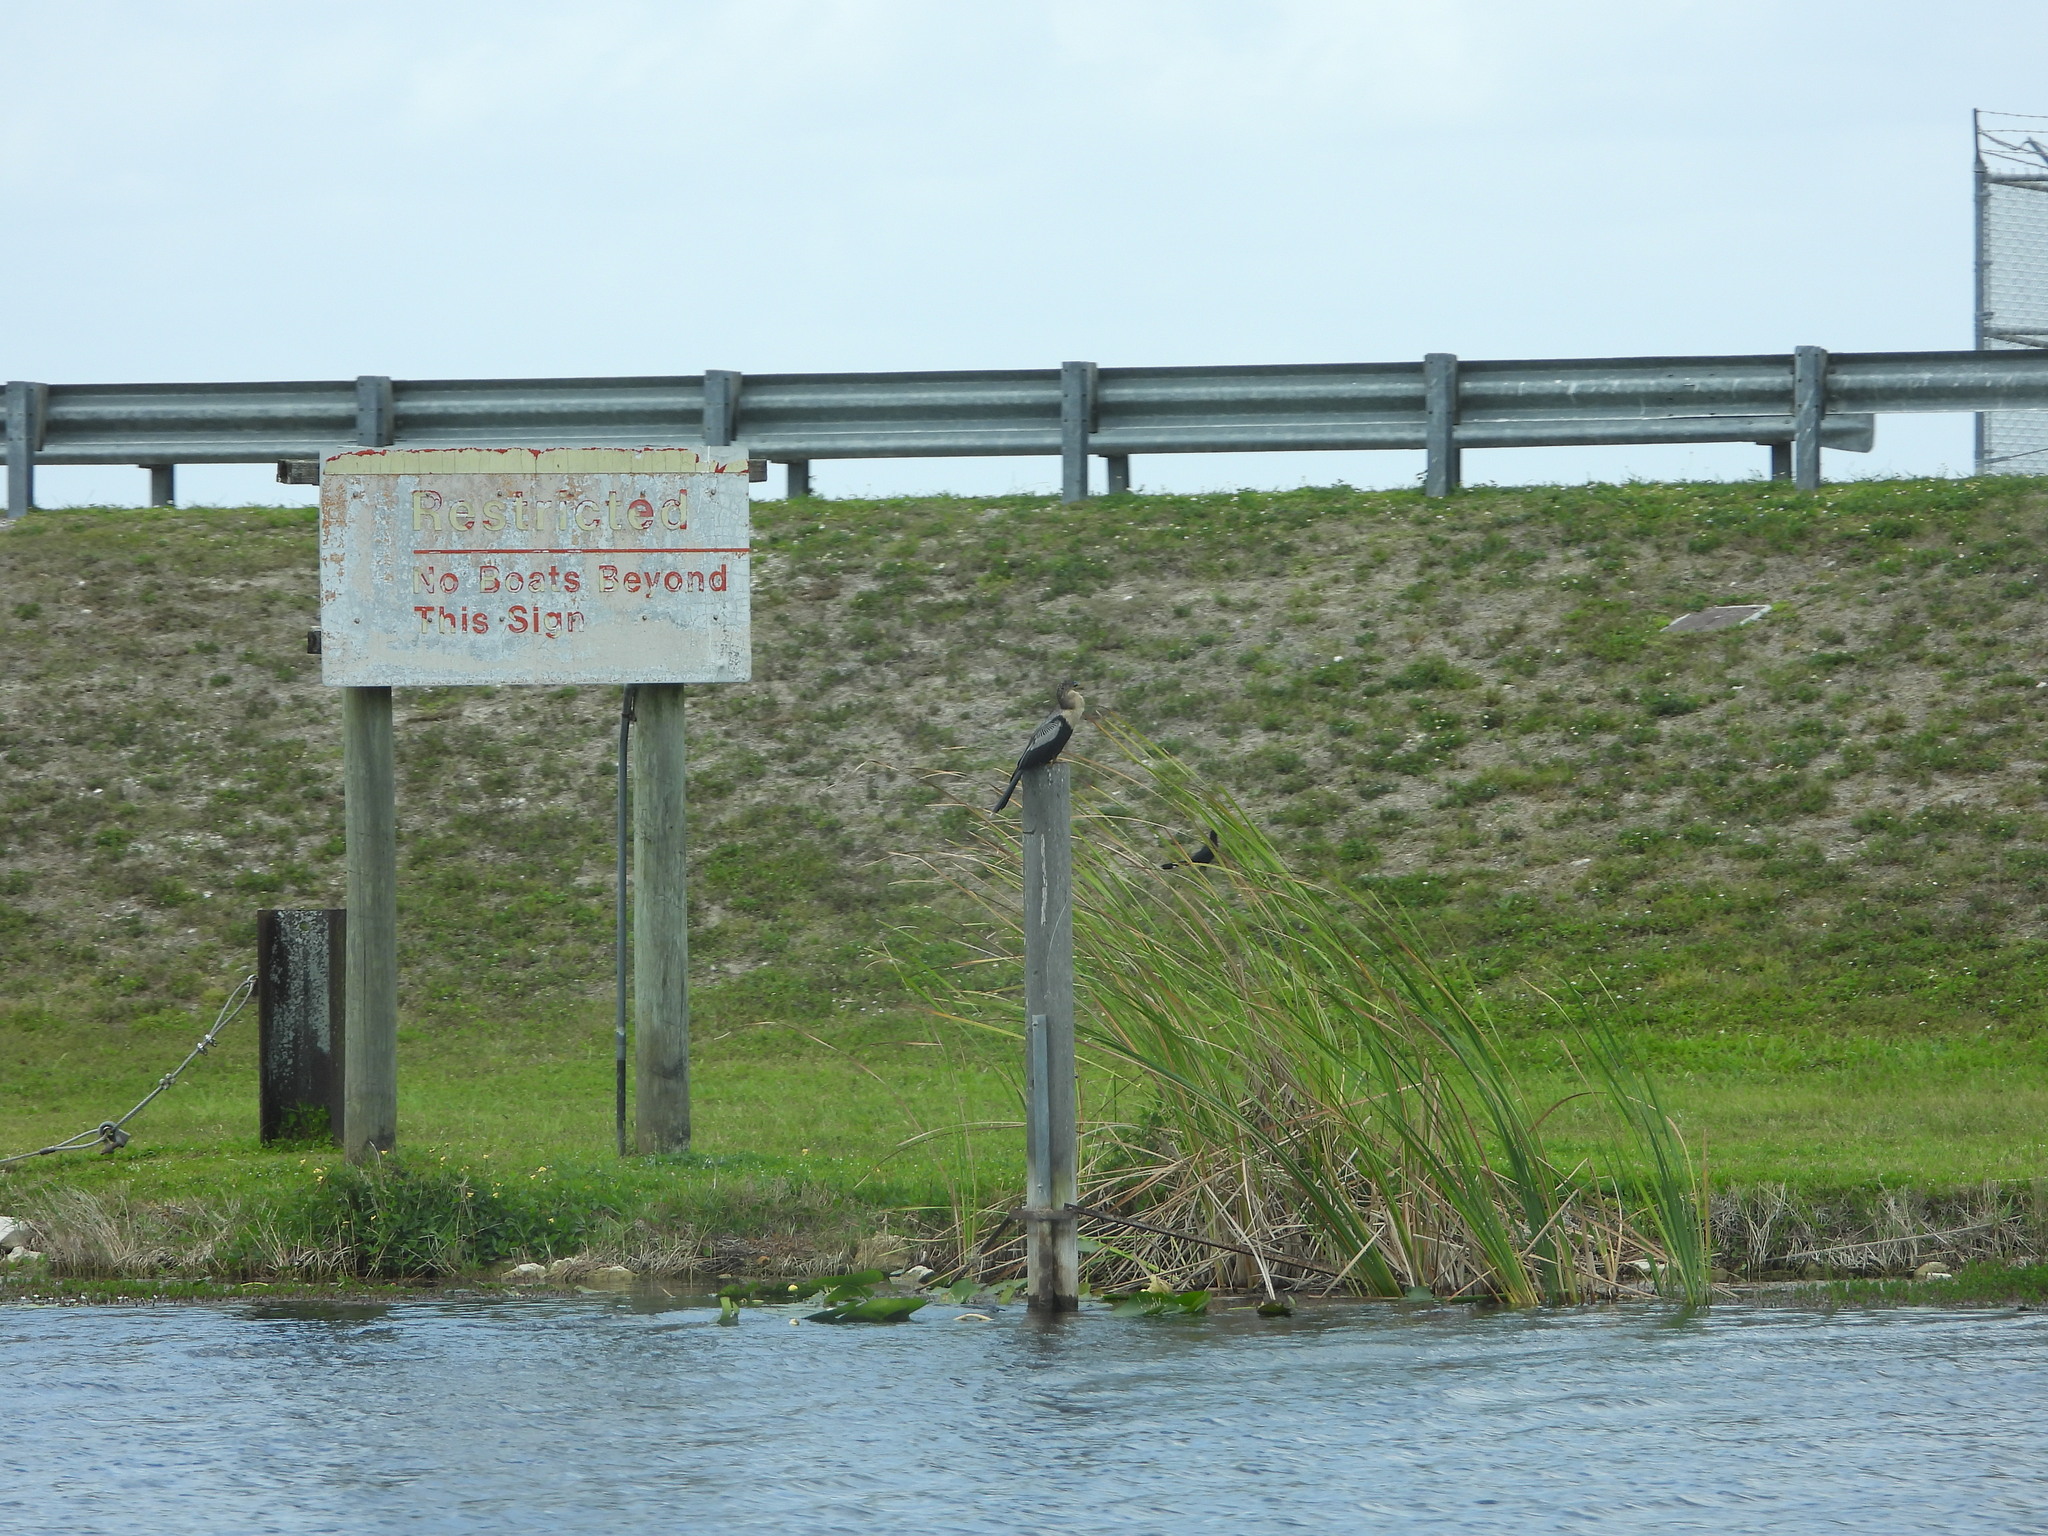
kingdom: Animalia
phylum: Chordata
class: Aves
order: Suliformes
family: Anhingidae
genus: Anhinga
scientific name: Anhinga anhinga
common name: Anhinga
